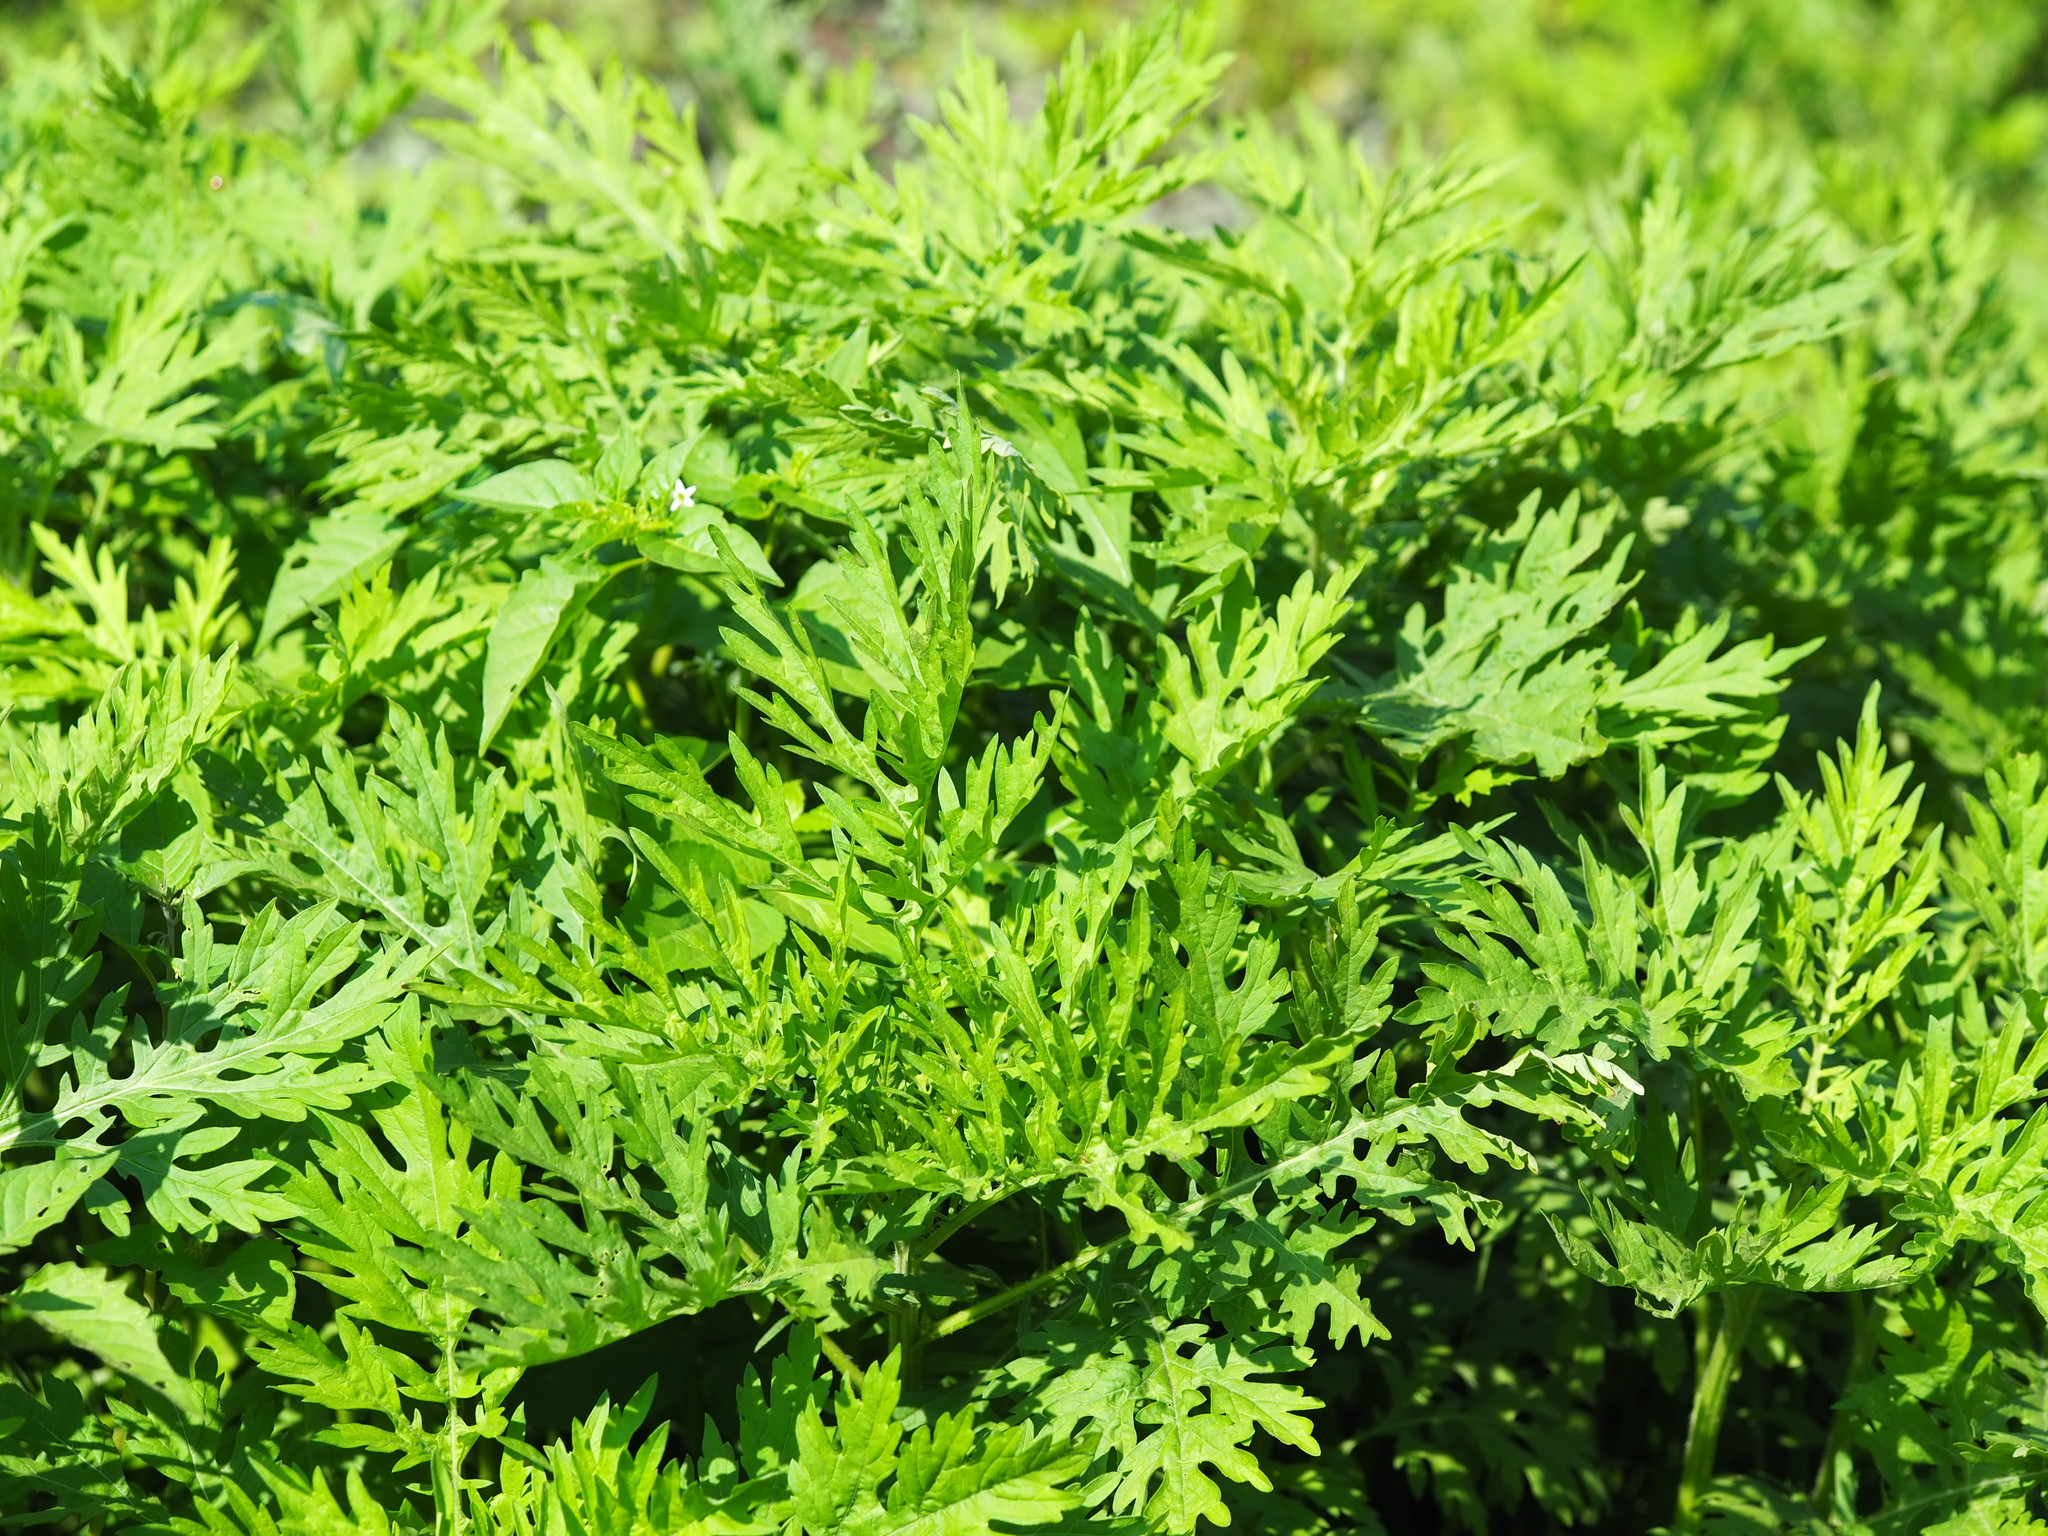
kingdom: Plantae
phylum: Tracheophyta
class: Magnoliopsida
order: Asterales
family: Asteraceae
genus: Parthenium
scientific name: Parthenium hysterophorus
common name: Santa maria feverfew
